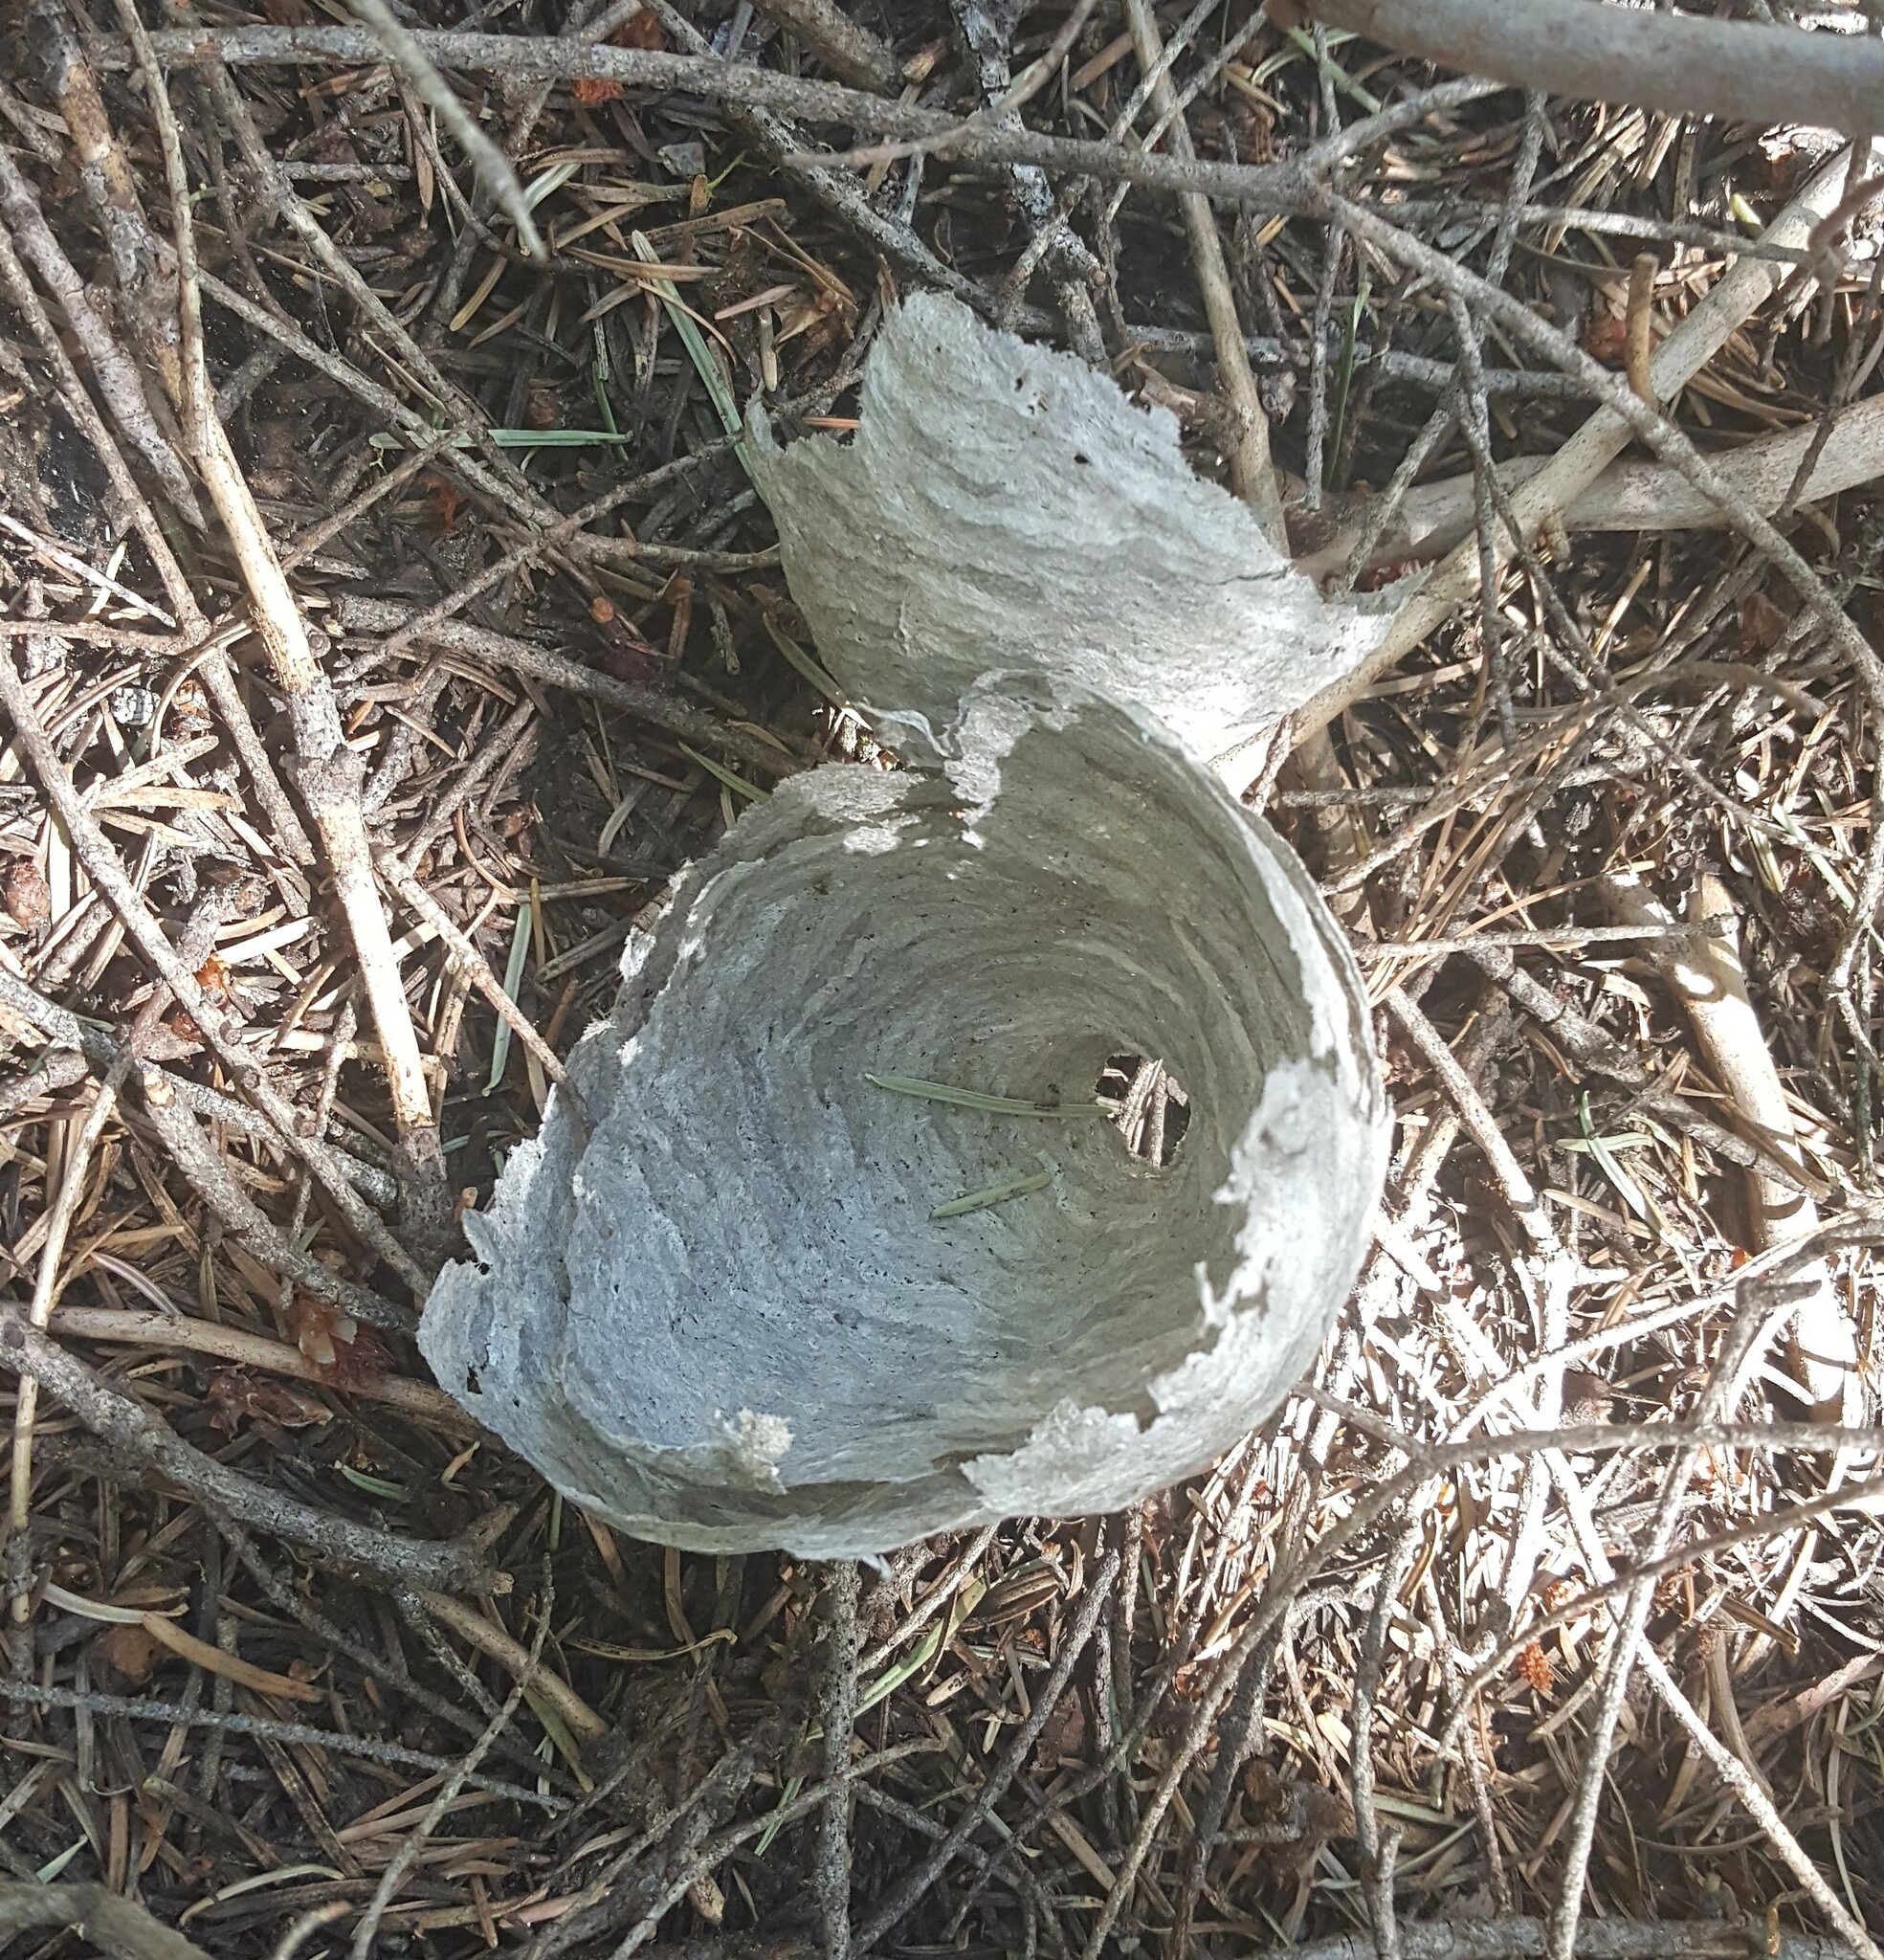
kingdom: Animalia
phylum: Arthropoda
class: Insecta
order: Hymenoptera
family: Vespidae
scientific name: Vespidae
